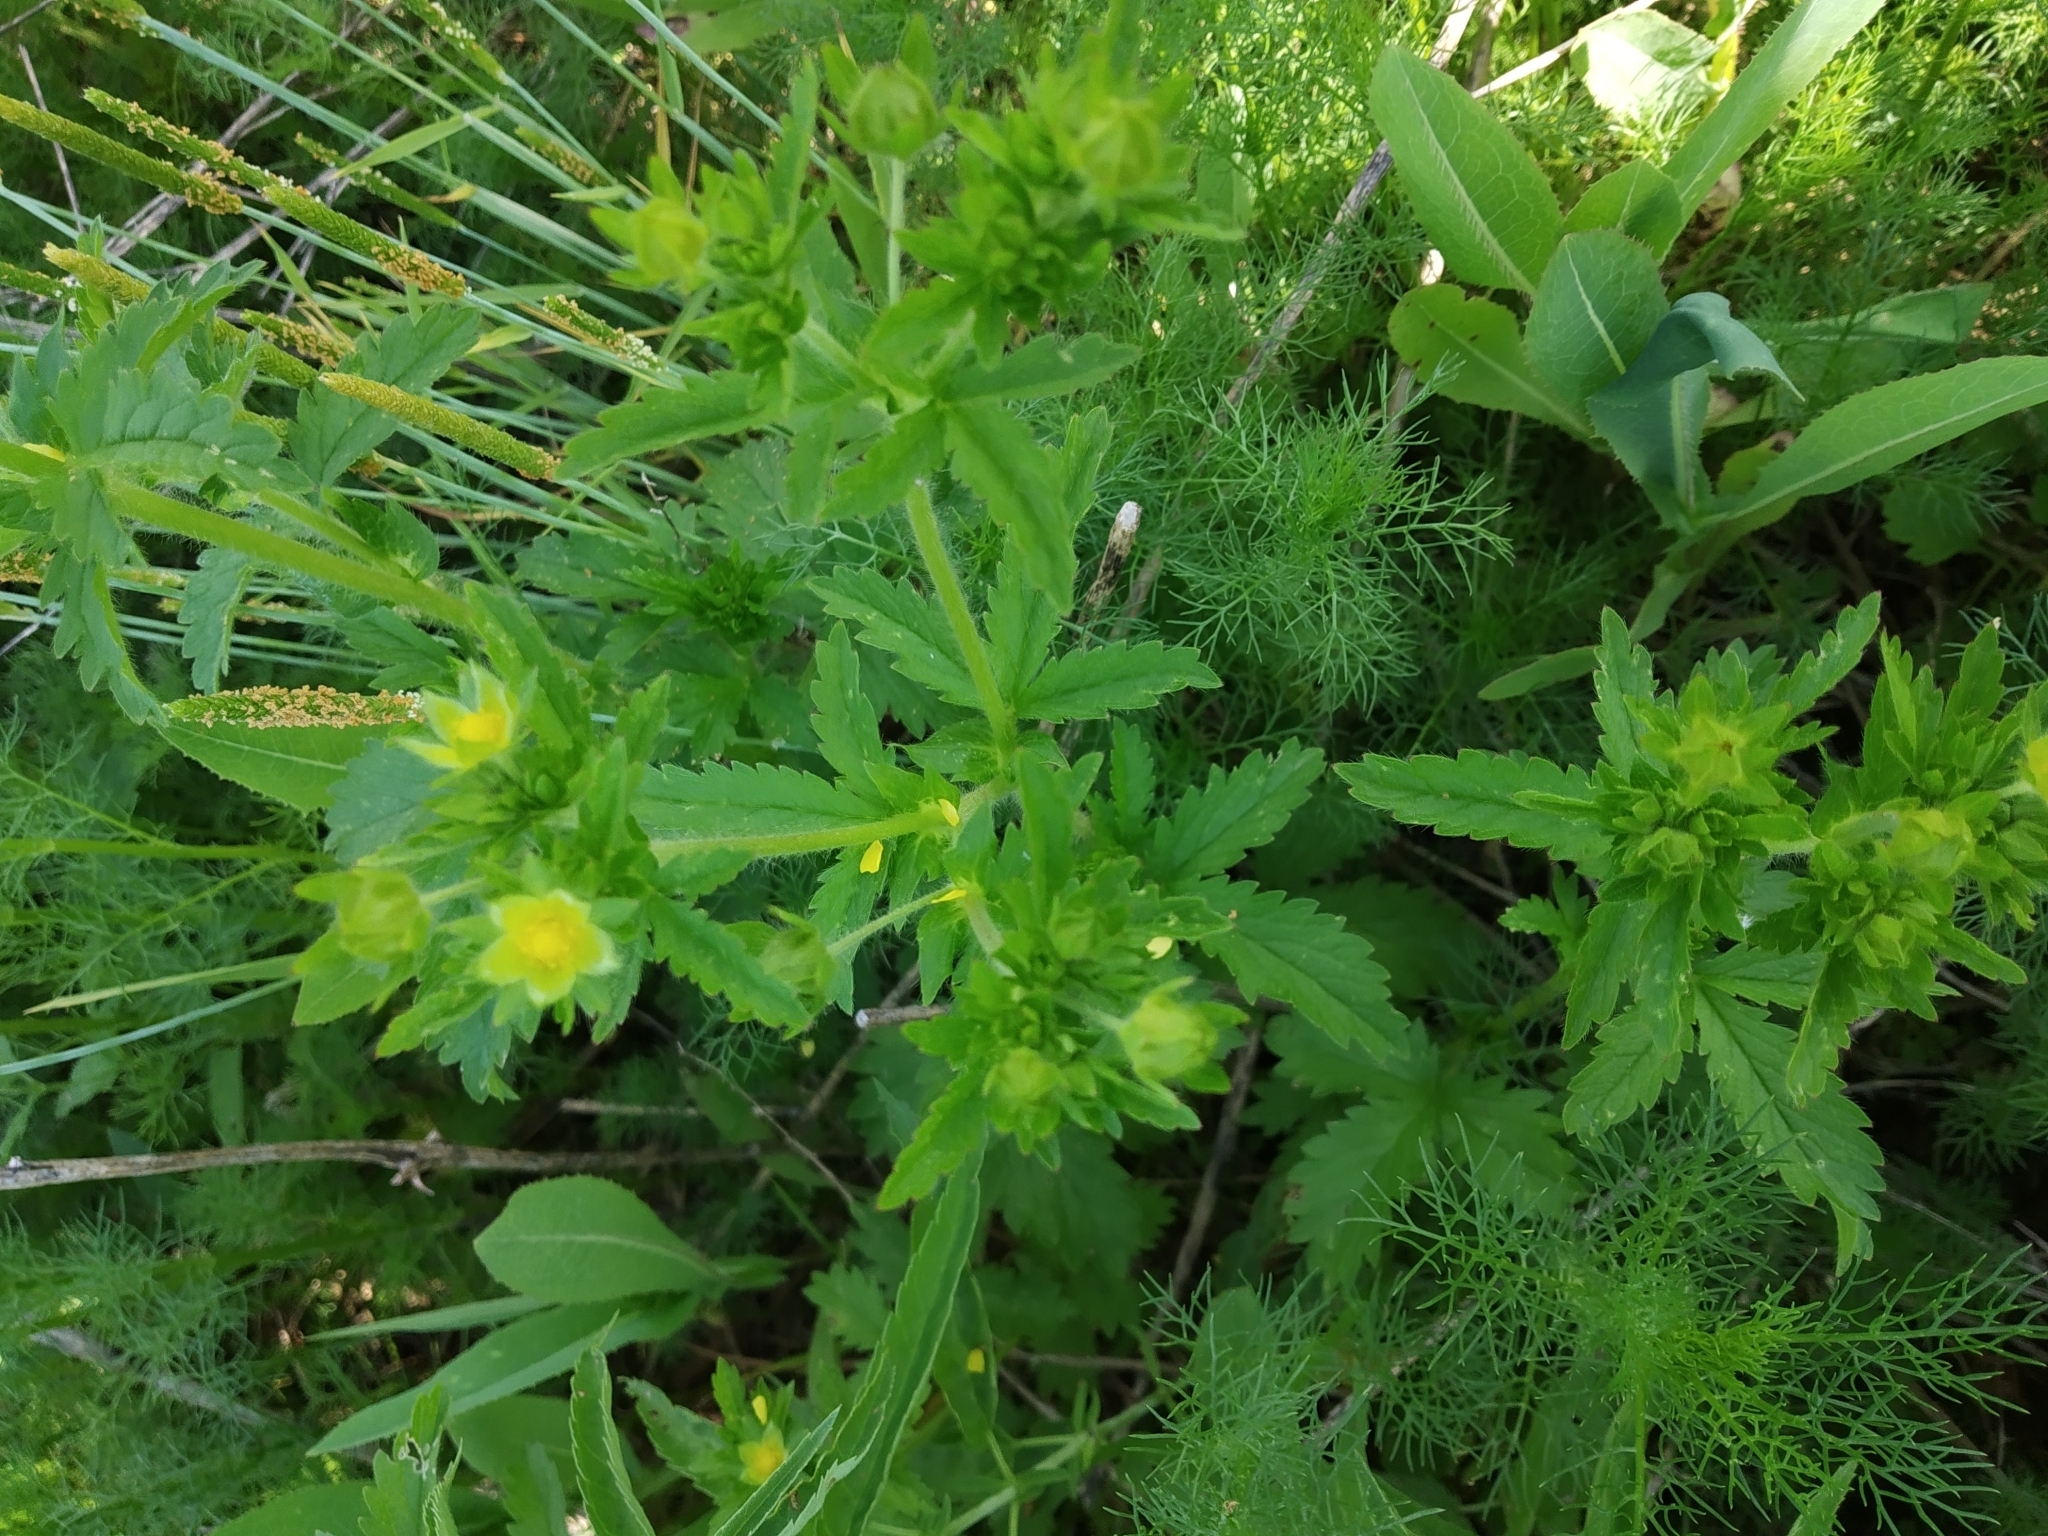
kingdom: Plantae
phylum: Tracheophyta
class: Magnoliopsida
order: Rosales
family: Rosaceae
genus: Potentilla
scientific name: Potentilla norvegica
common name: Ternate-leaved cinquefoil
